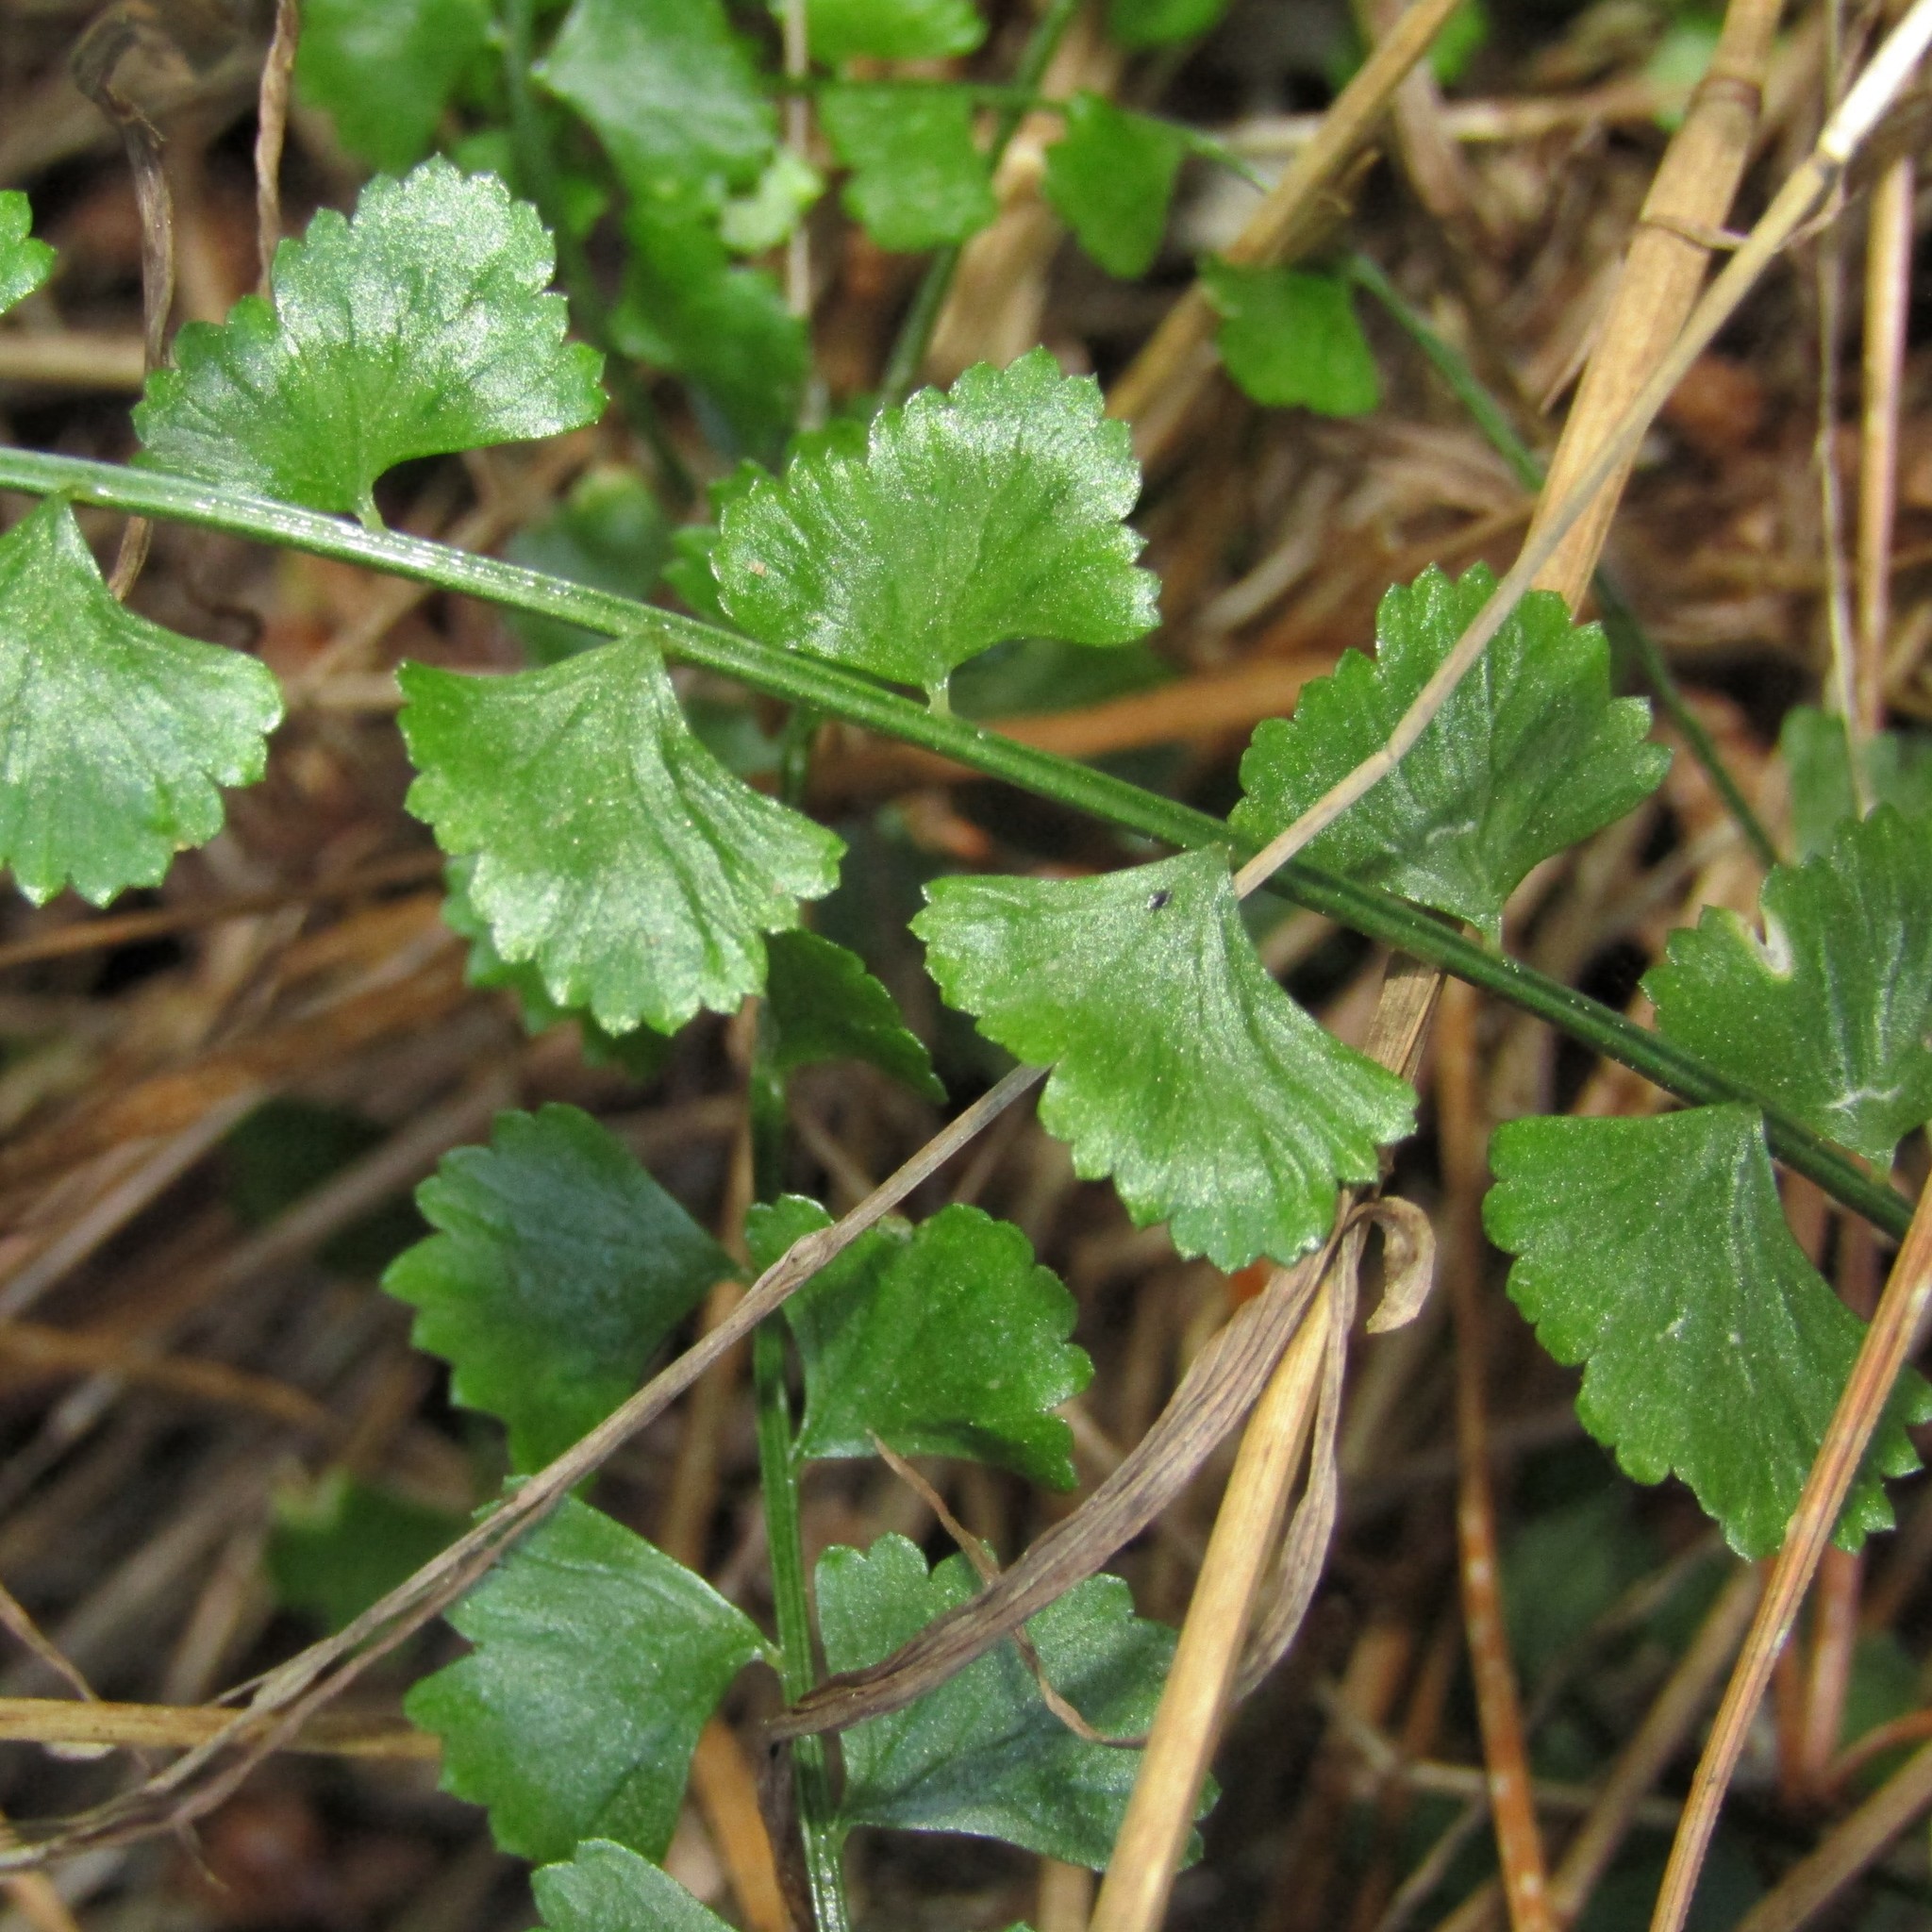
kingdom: Plantae
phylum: Tracheophyta
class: Polypodiopsida
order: Polypodiales
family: Aspleniaceae
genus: Asplenium
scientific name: Asplenium flabellifolium
